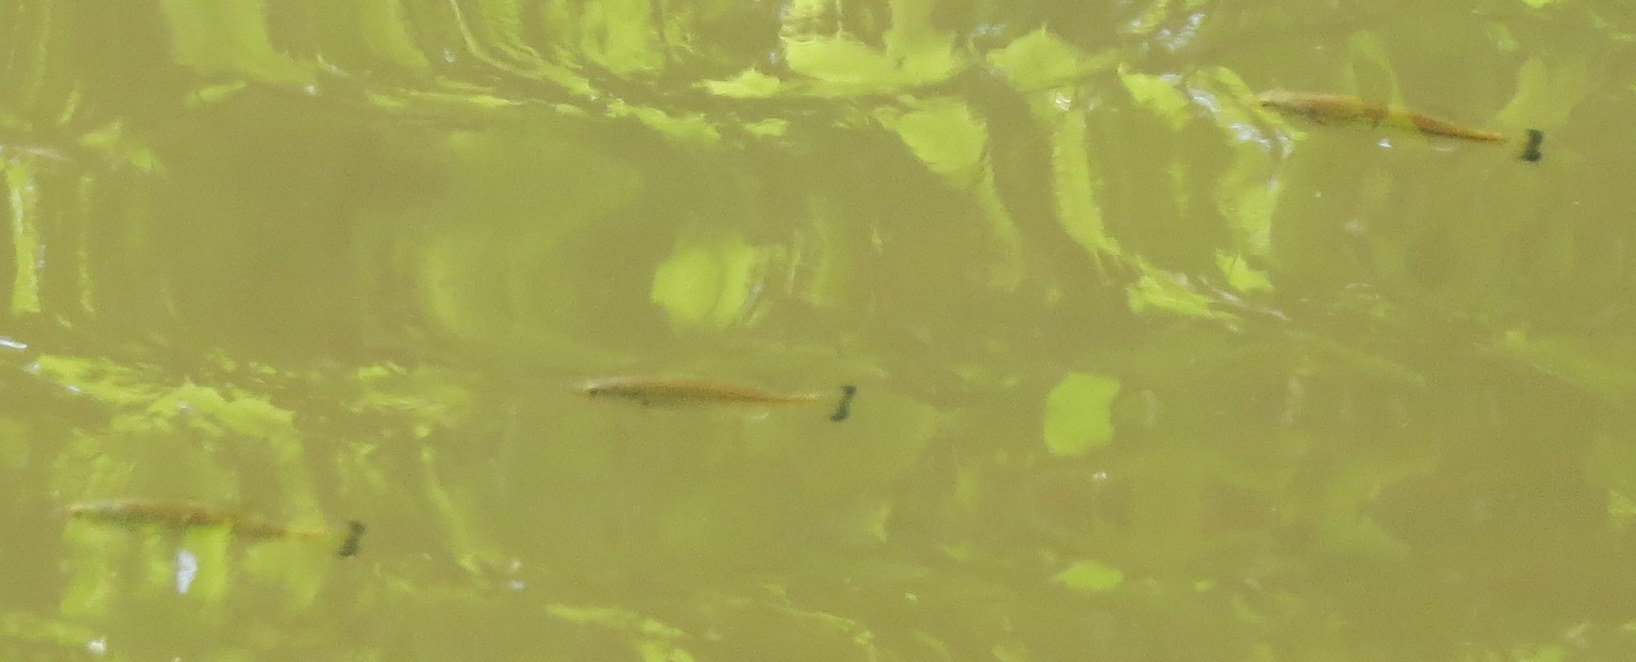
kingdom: Animalia
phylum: Chordata
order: Perciformes
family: Centrarchidae
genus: Micropterus
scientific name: Micropterus
